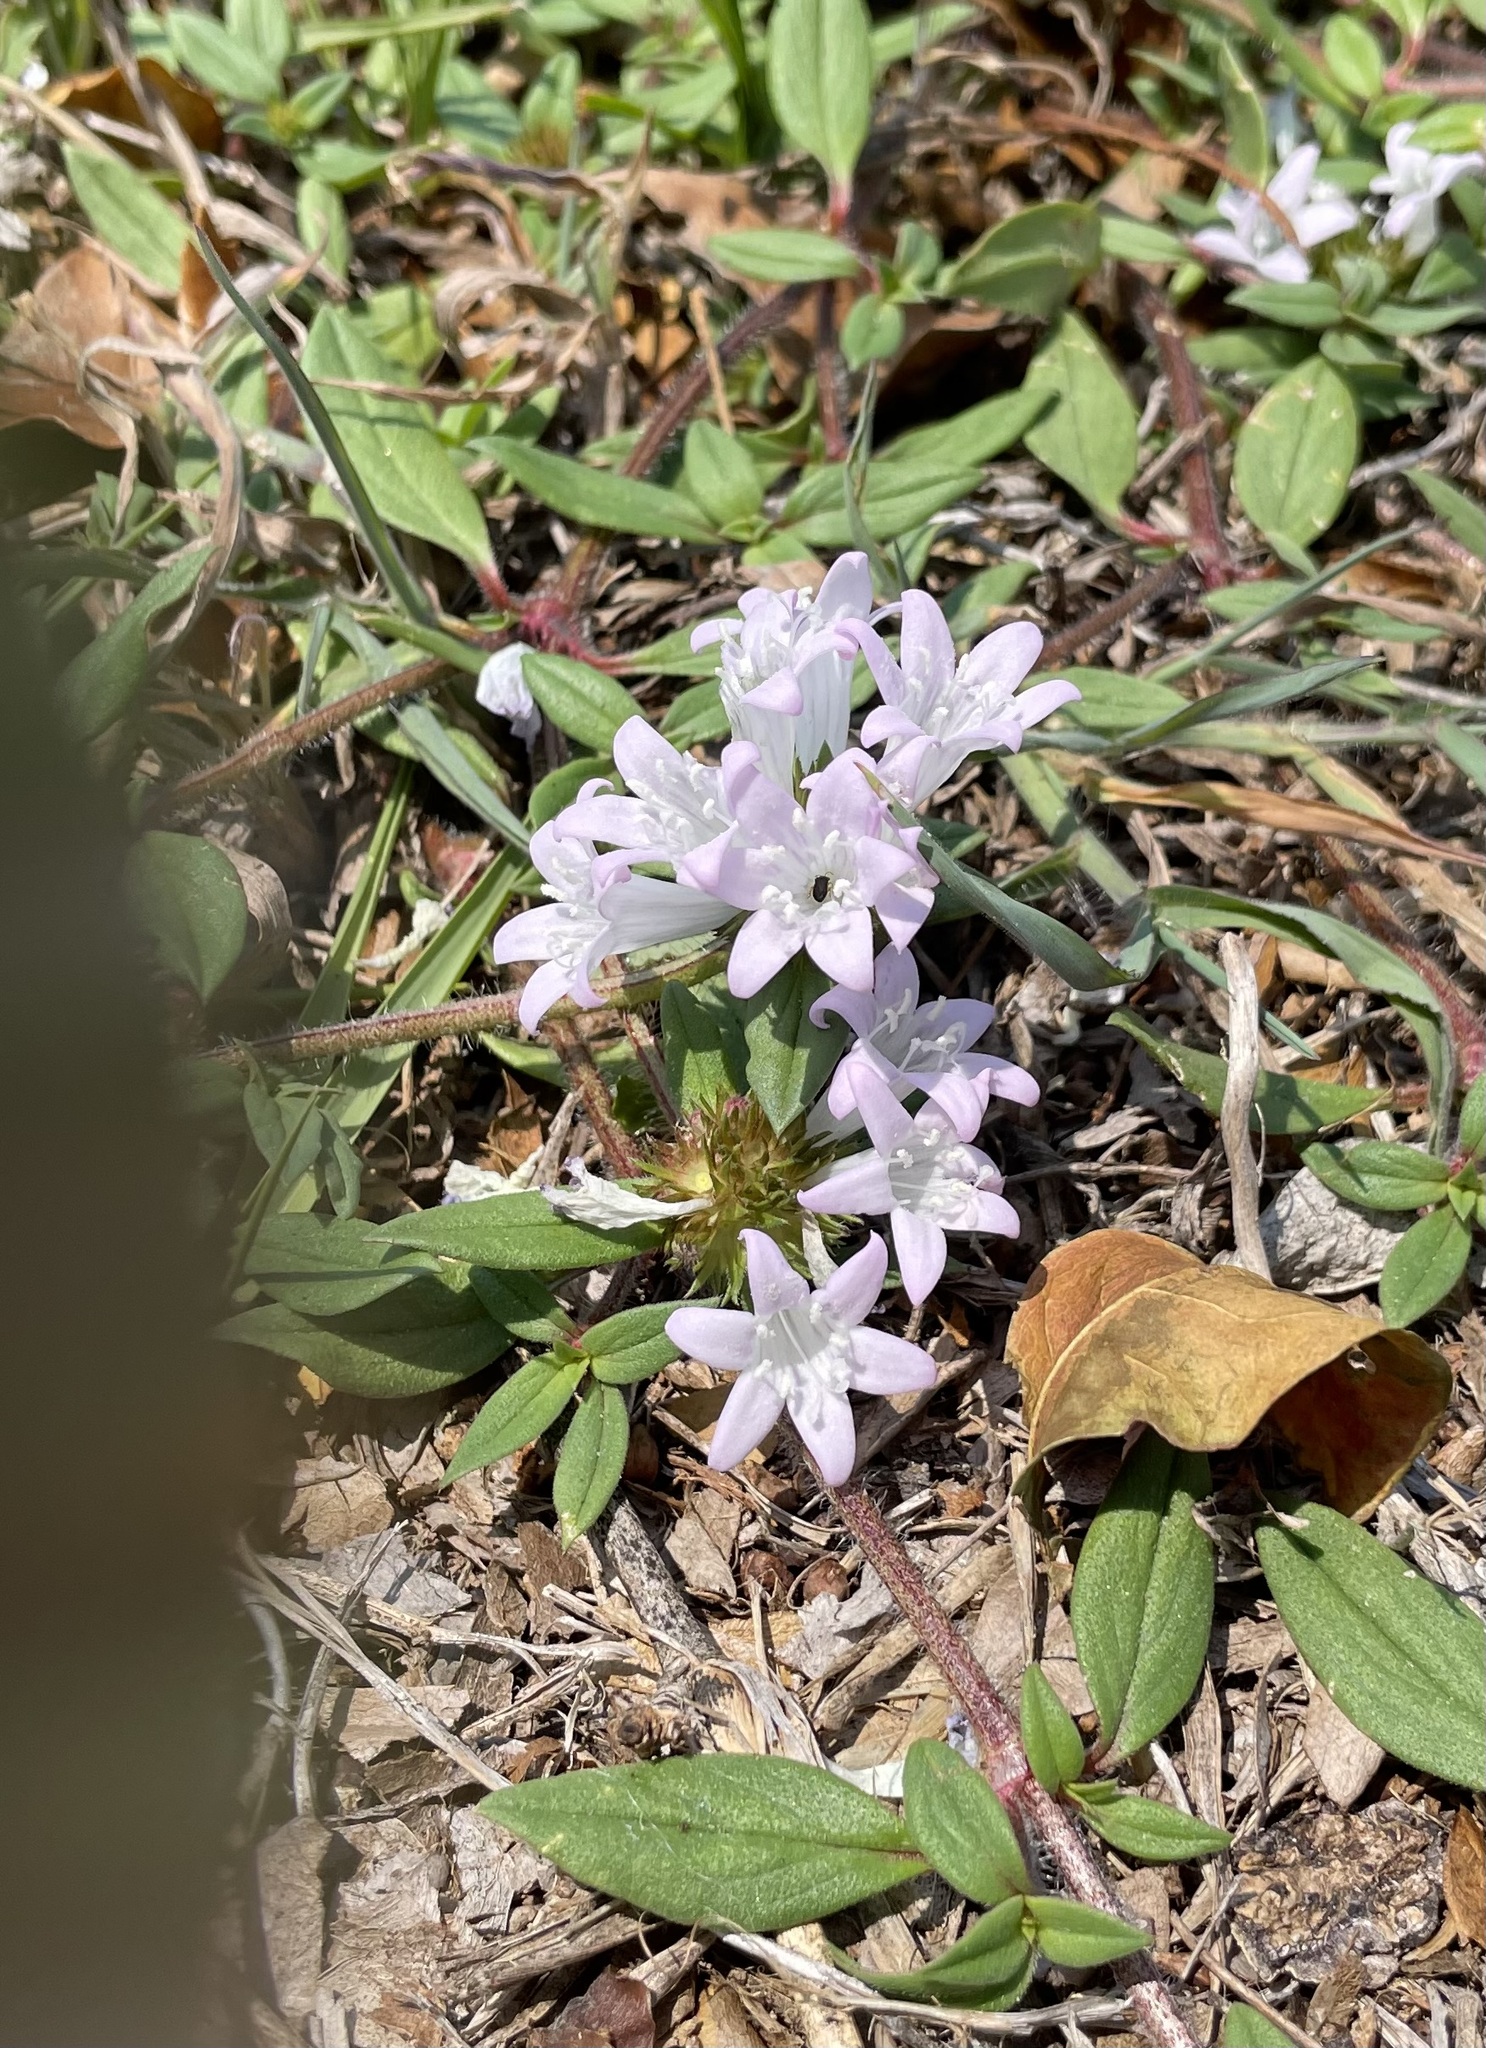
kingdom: Plantae
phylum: Tracheophyta
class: Magnoliopsida
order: Gentianales
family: Rubiaceae
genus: Richardia
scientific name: Richardia grandiflora
